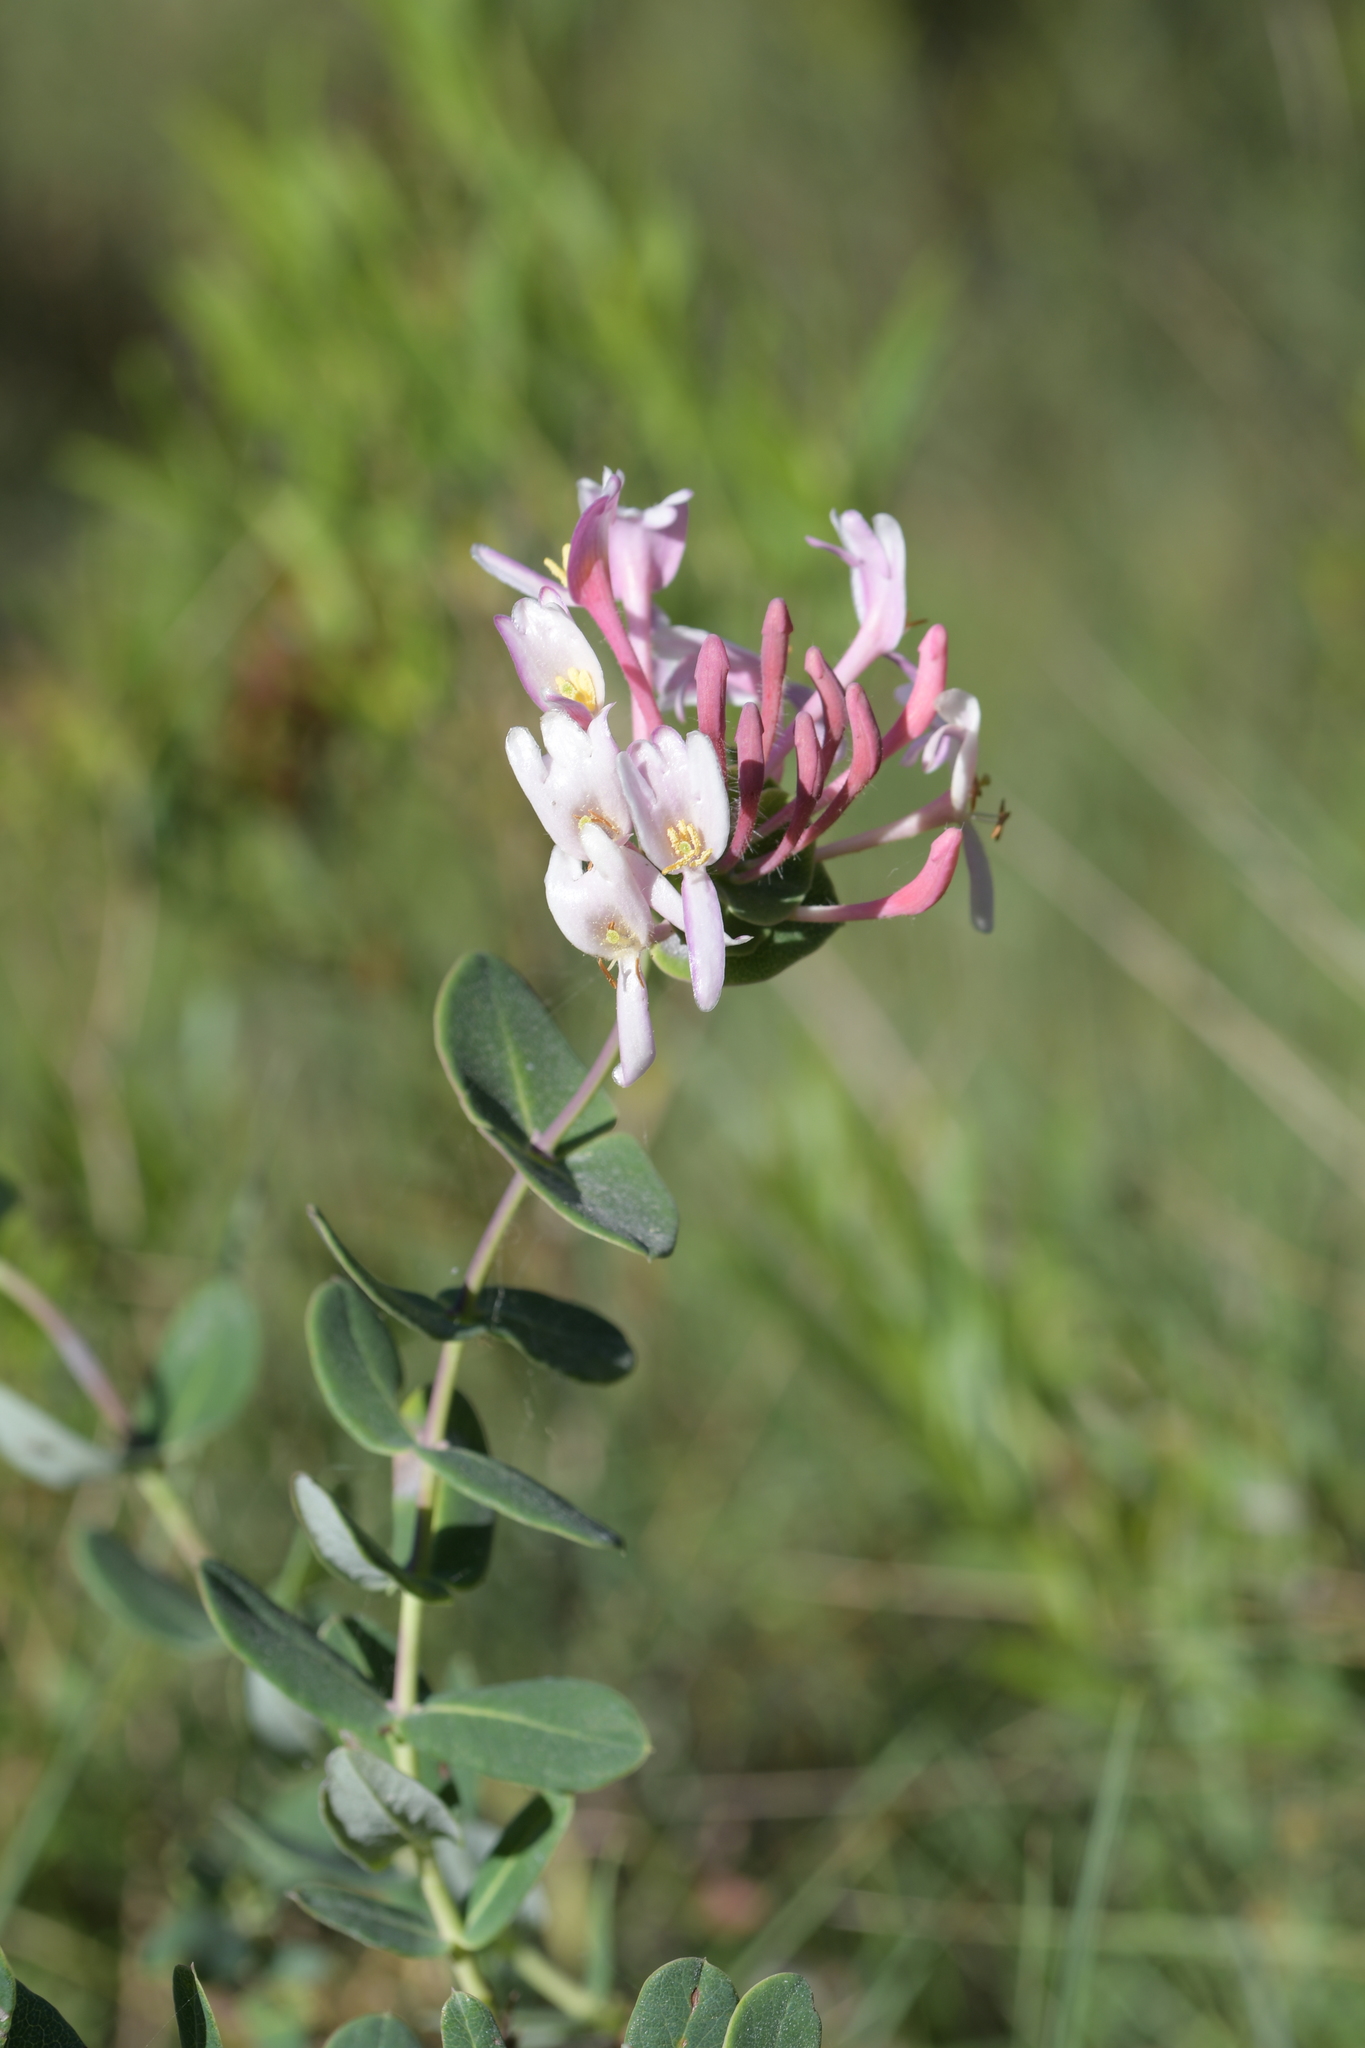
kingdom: Plantae
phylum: Tracheophyta
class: Magnoliopsida
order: Dipsacales
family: Caprifoliaceae
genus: Lonicera
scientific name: Lonicera implexa
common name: Minorca honeysuckle
